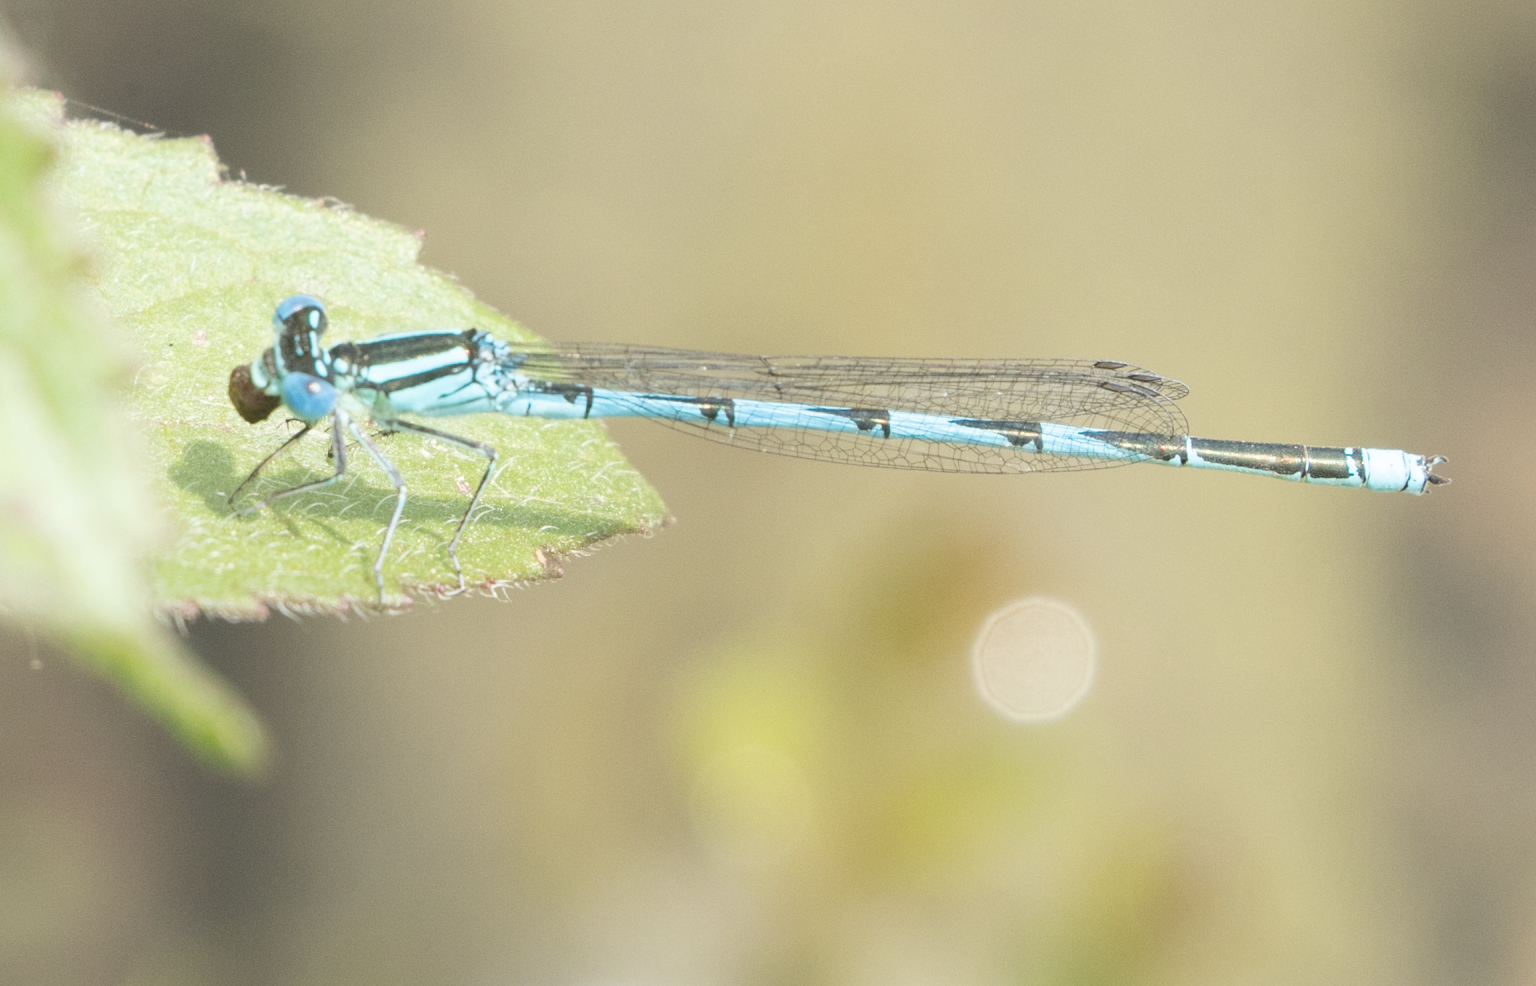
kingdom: Animalia
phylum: Arthropoda
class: Insecta
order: Odonata
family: Coenagrionidae
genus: Erythromma
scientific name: Erythromma lindenii
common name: Blue-eye
